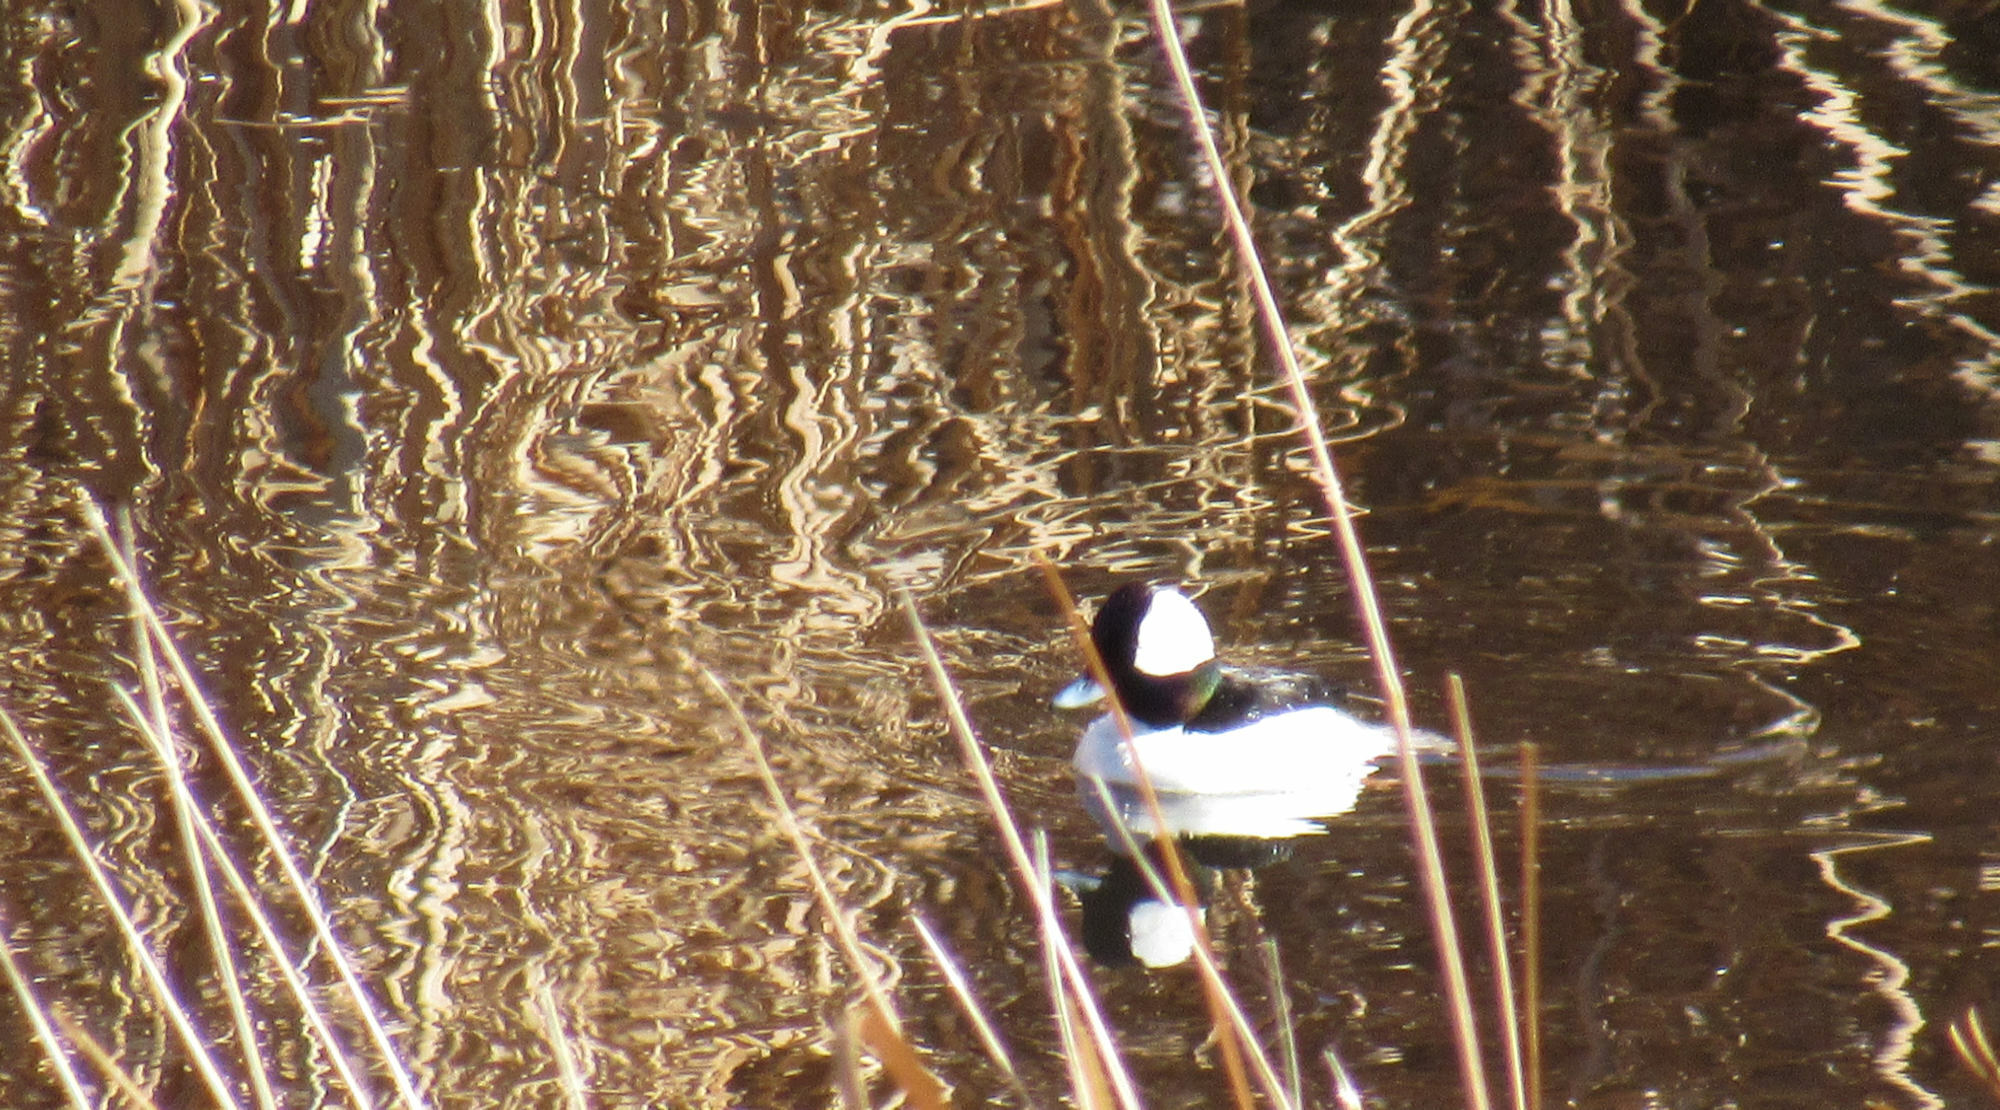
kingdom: Animalia
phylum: Chordata
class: Aves
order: Anseriformes
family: Anatidae
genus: Bucephala
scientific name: Bucephala albeola
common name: Bufflehead
